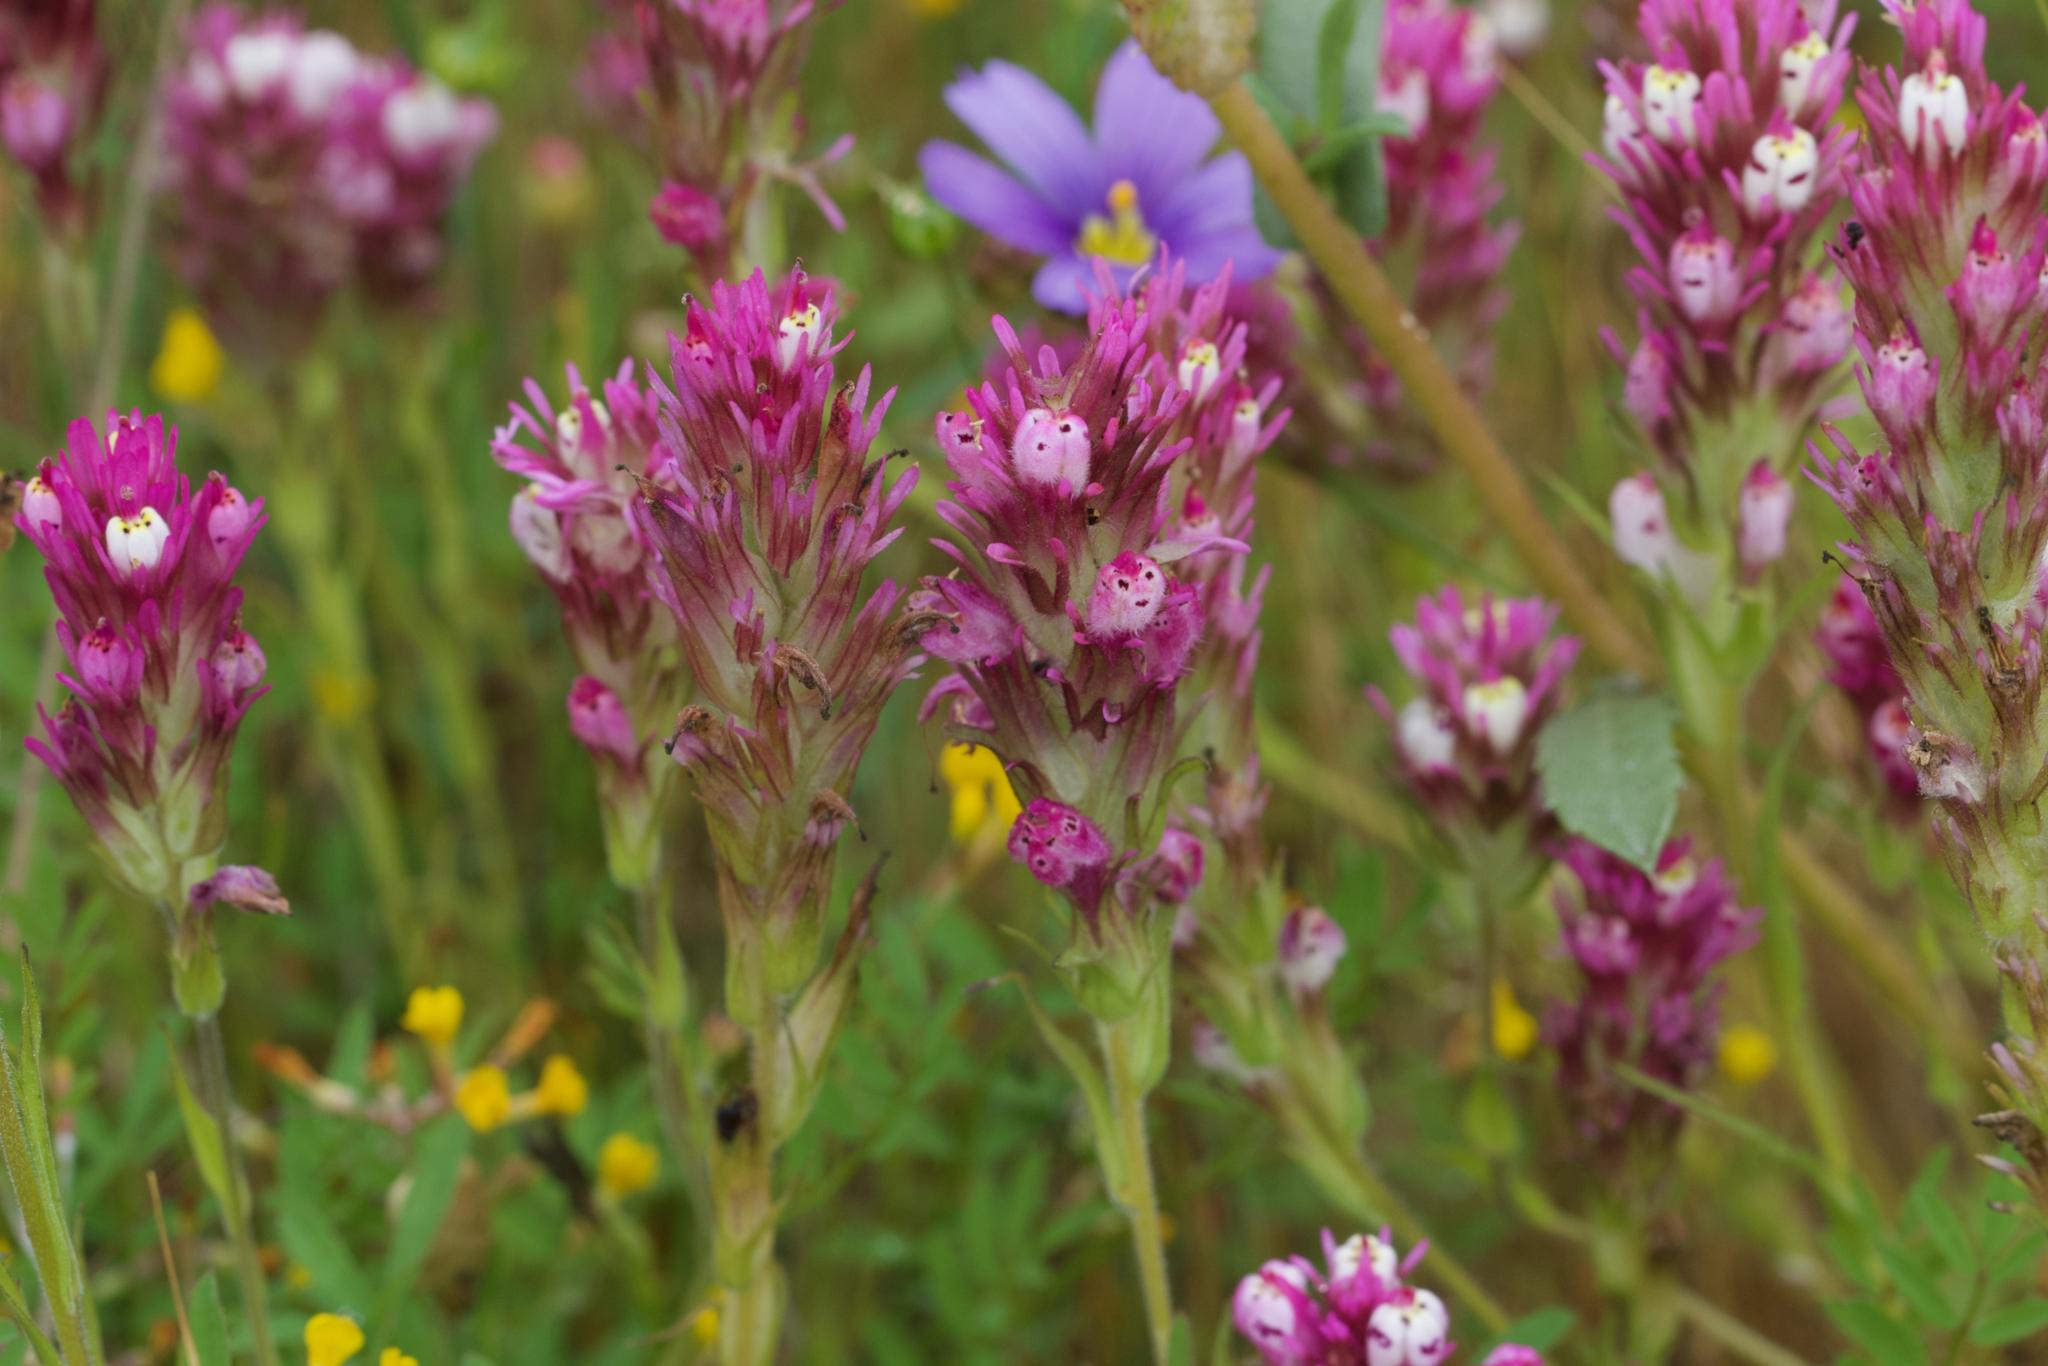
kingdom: Plantae
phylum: Tracheophyta
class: Magnoliopsida
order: Lamiales
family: Orobanchaceae
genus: Castilleja
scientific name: Castilleja densiflora
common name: Dense-flower indian paintbrush
